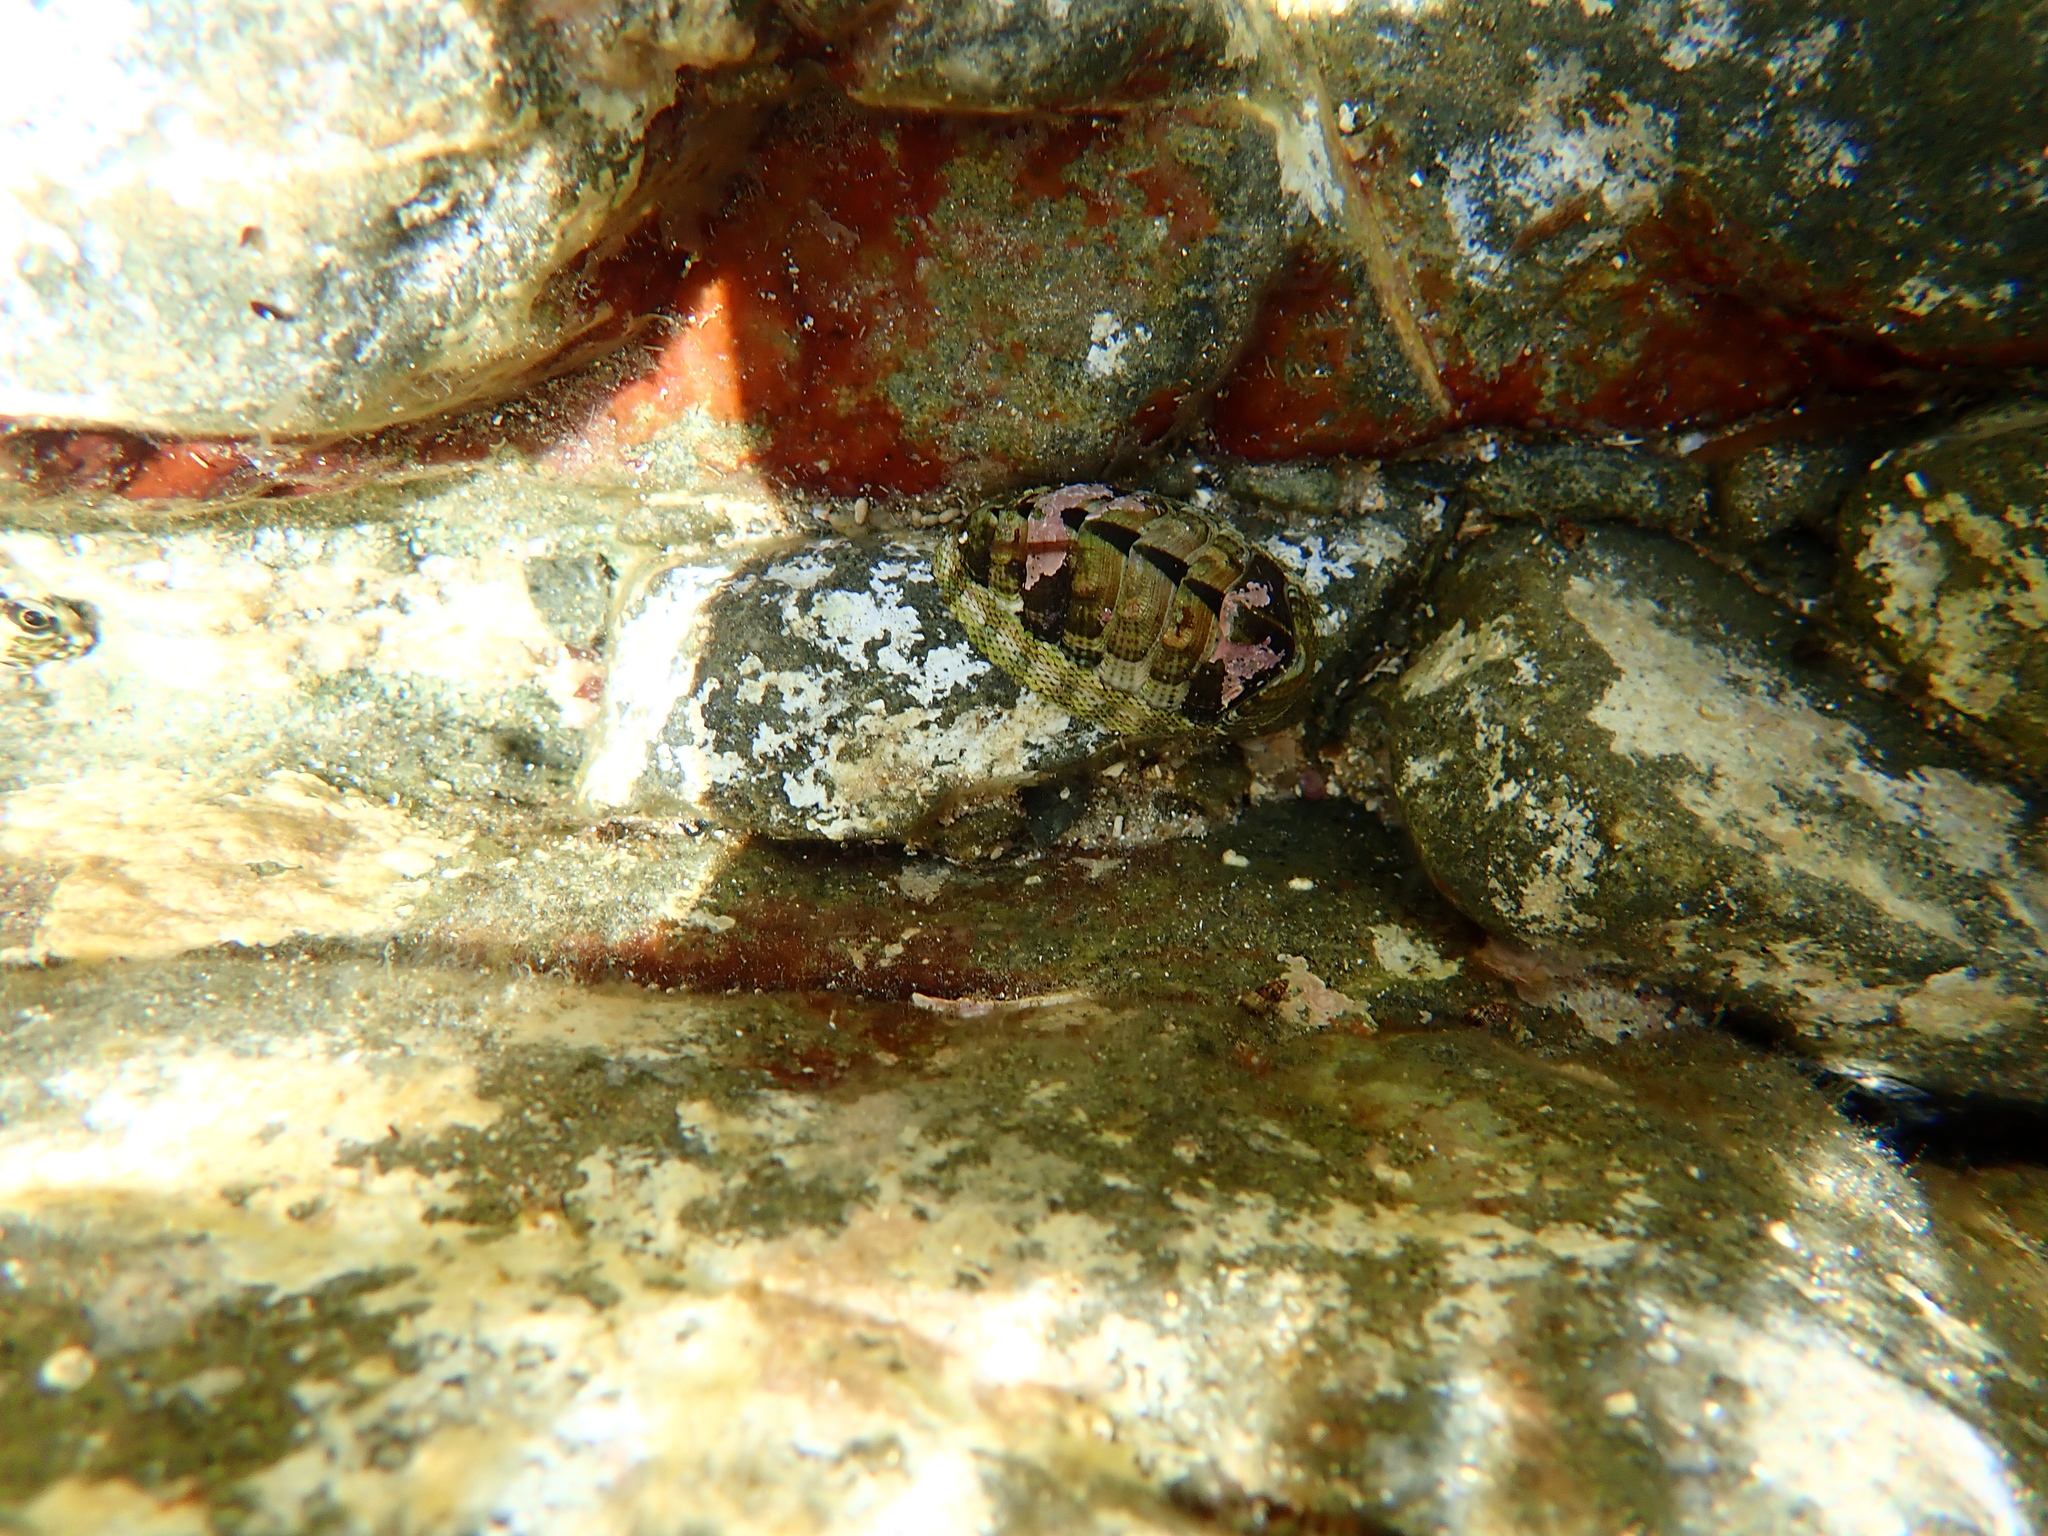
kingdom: Animalia
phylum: Mollusca
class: Polyplacophora
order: Chitonida
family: Chitonidae
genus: Sypharochiton
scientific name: Sypharochiton pelliserpentis
